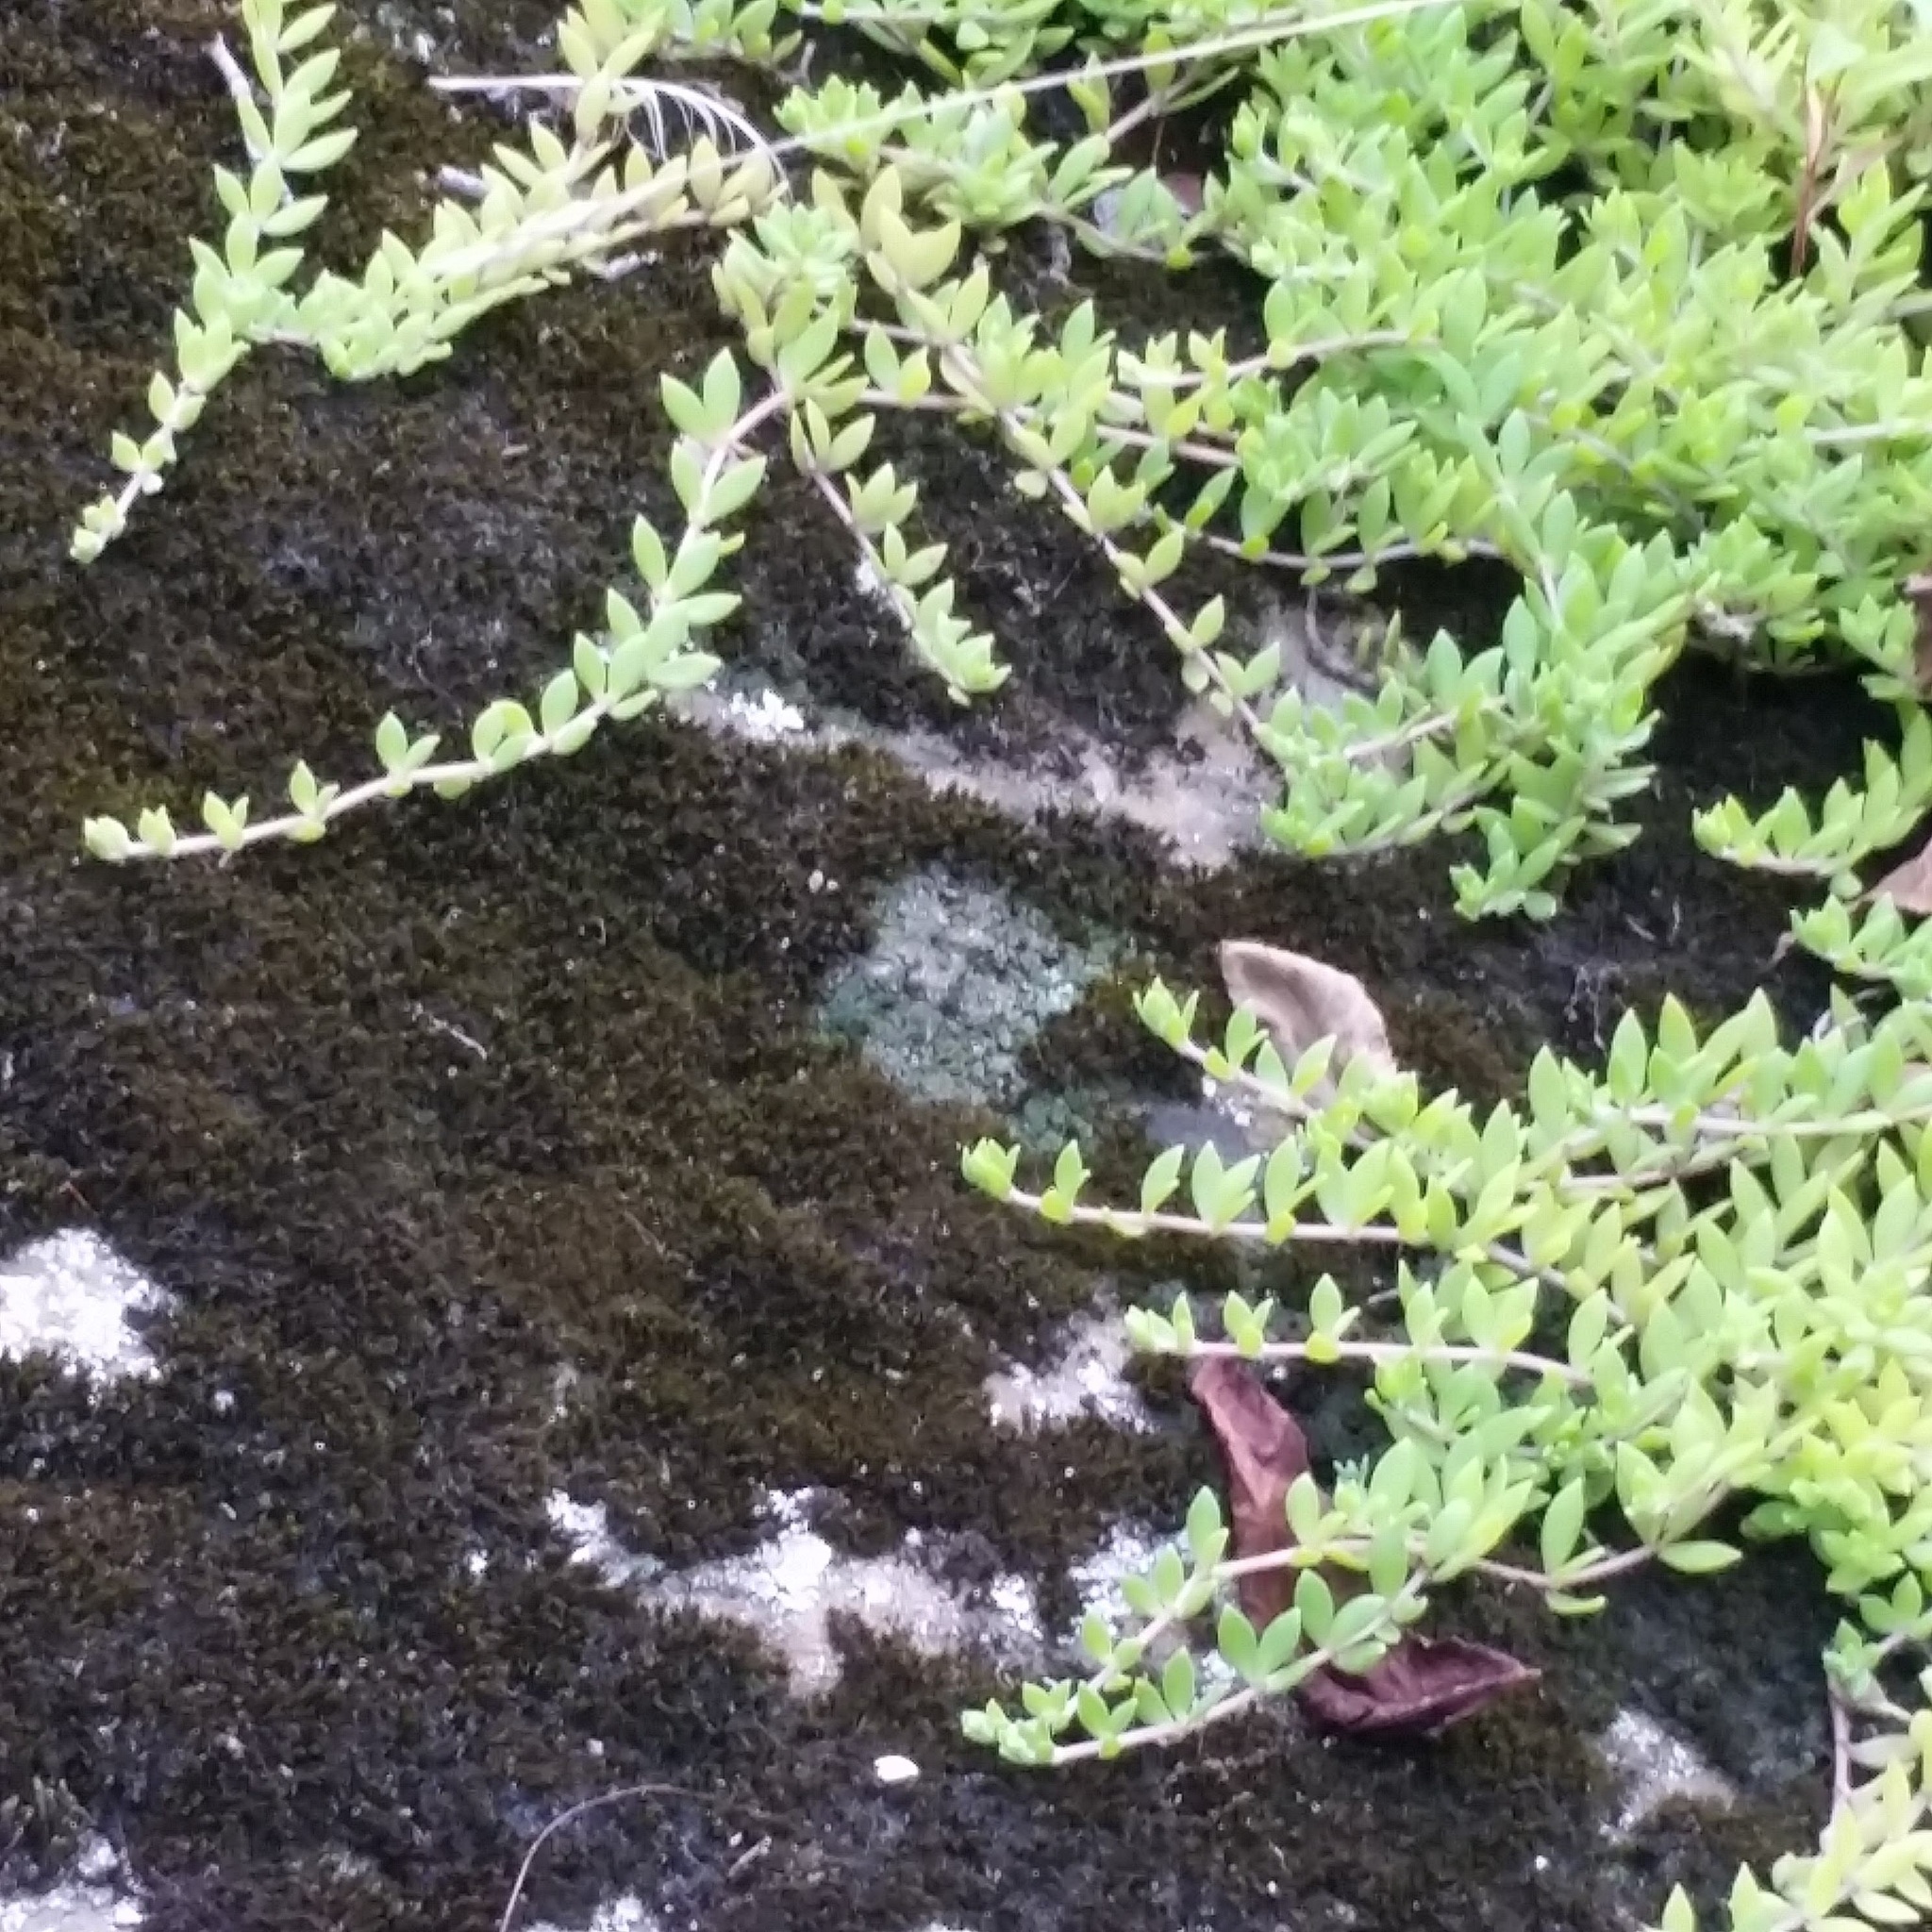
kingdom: Plantae
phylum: Tracheophyta
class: Magnoliopsida
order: Saxifragales
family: Crassulaceae
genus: Sedum
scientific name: Sedum sarmentosum
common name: Stringy stonecrop
